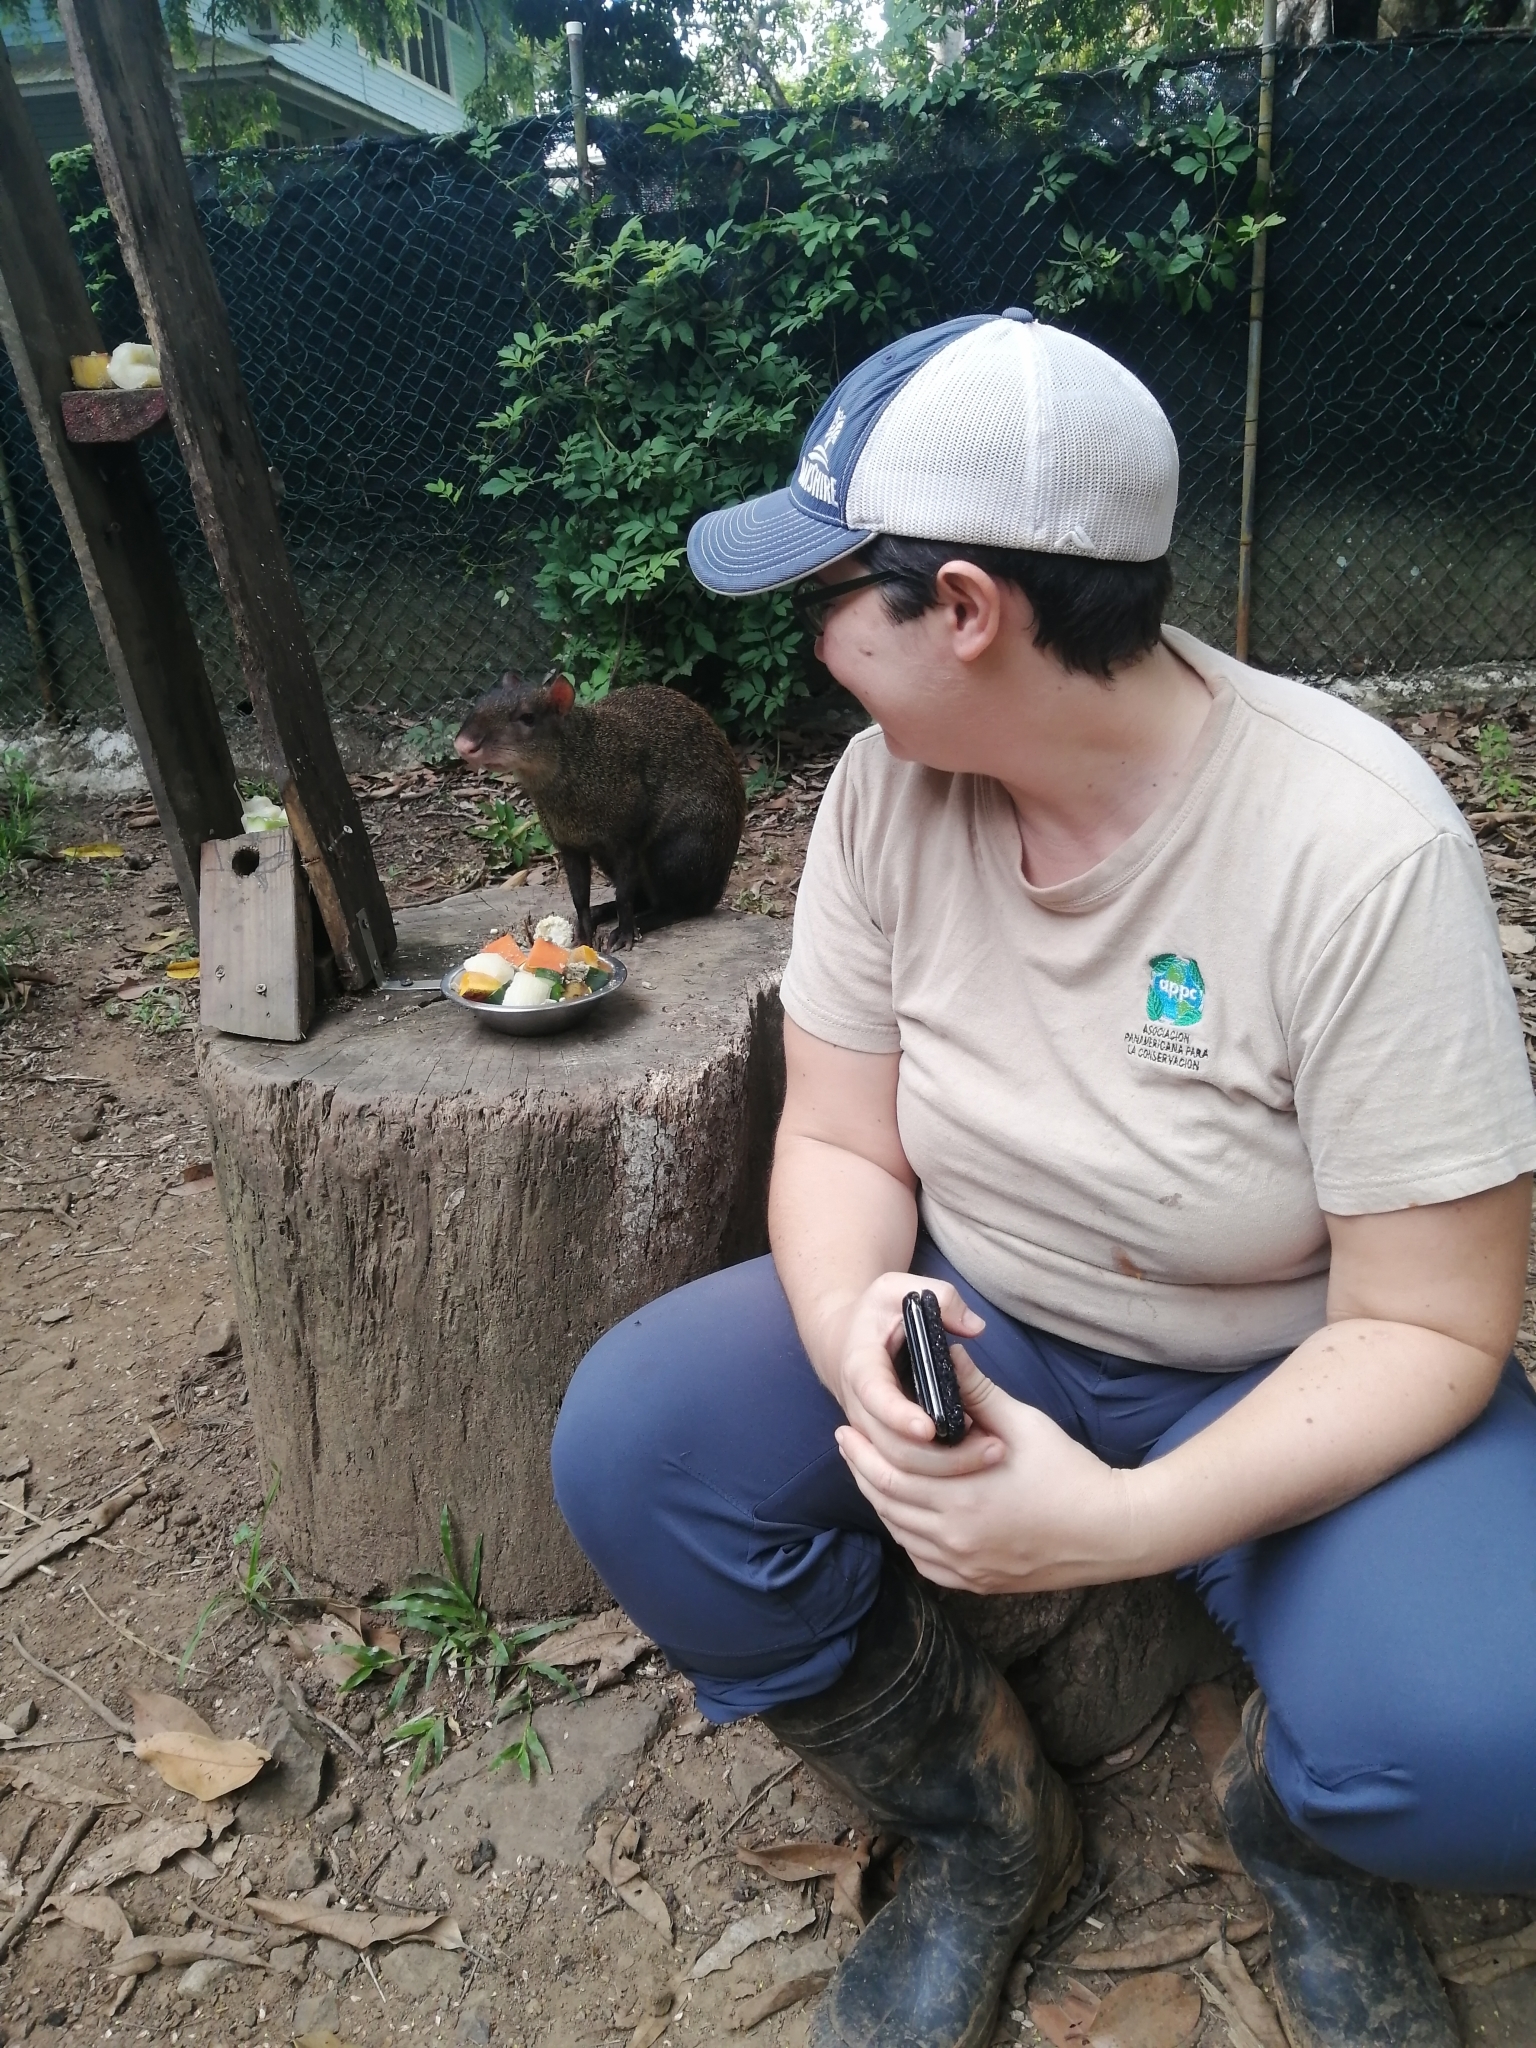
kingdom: Animalia
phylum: Chordata
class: Mammalia
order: Rodentia
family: Dasyproctidae
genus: Dasyprocta
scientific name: Dasyprocta punctata
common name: Central american agouti
